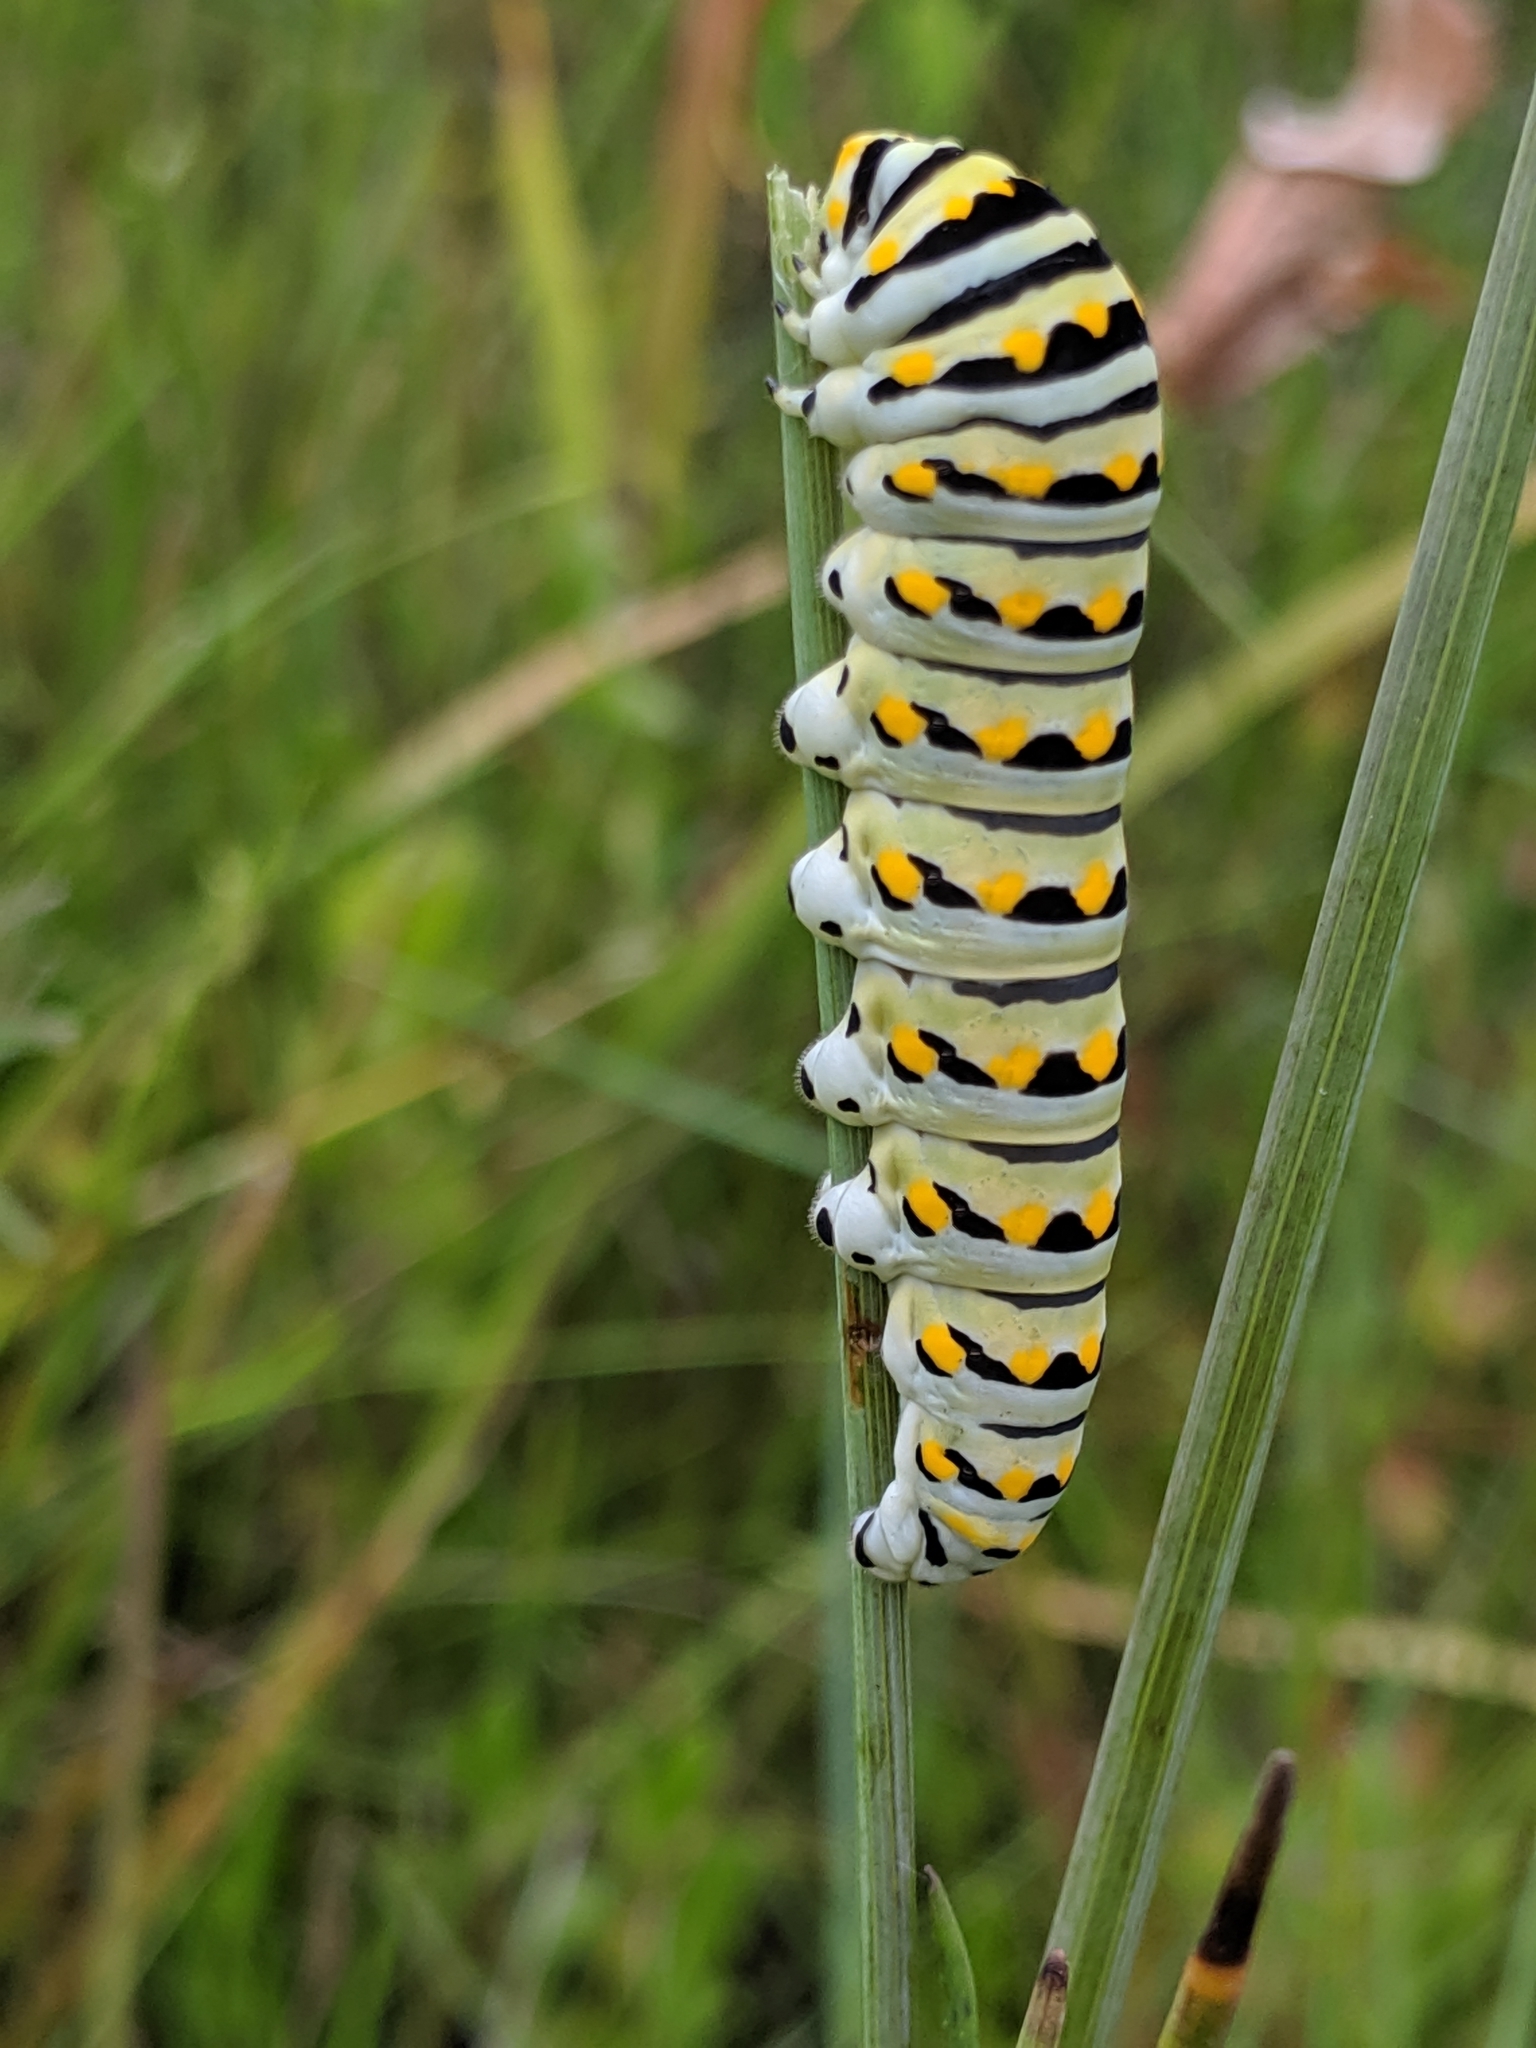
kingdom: Animalia
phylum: Arthropoda
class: Insecta
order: Lepidoptera
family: Papilionidae
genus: Papilio
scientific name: Papilio polyxenes
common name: Black swallowtail
